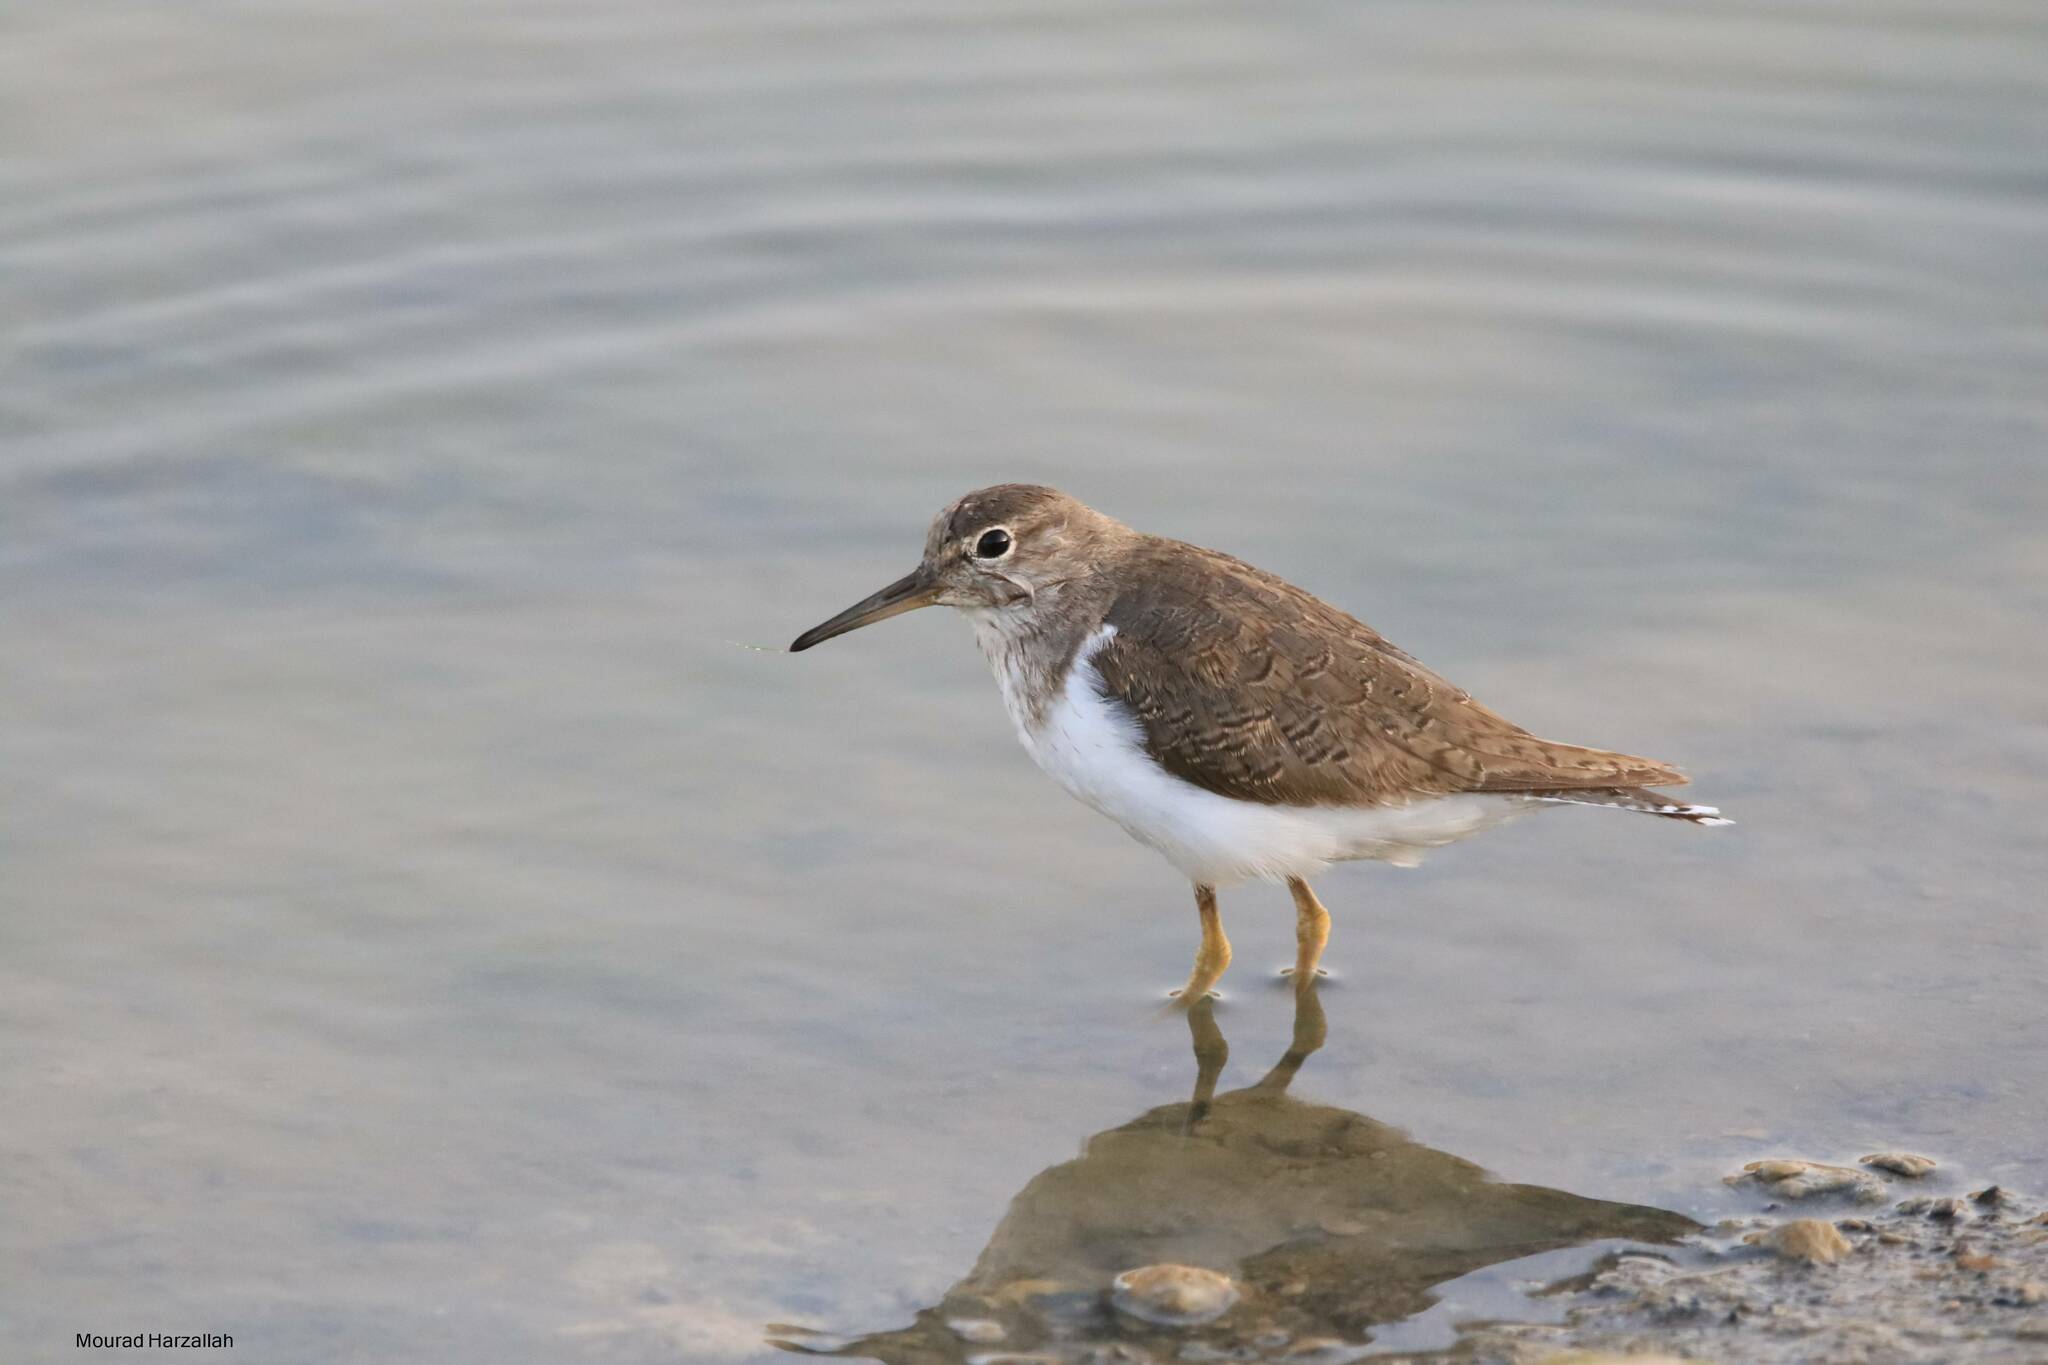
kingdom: Animalia
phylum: Chordata
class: Aves
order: Charadriiformes
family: Scolopacidae
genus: Actitis
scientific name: Actitis hypoleucos
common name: Common sandpiper
